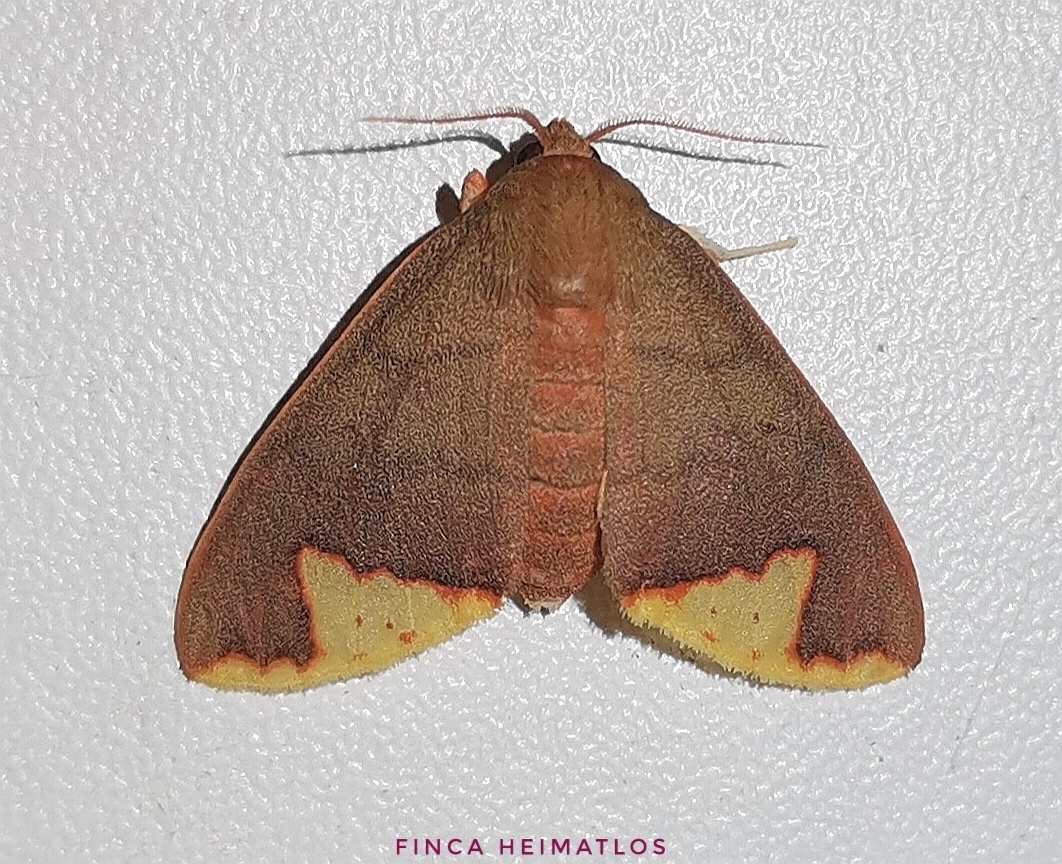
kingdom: Animalia
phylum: Arthropoda
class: Insecta
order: Lepidoptera
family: Erebidae
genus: Pseudepimolis
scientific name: Pseudepimolis incisa
